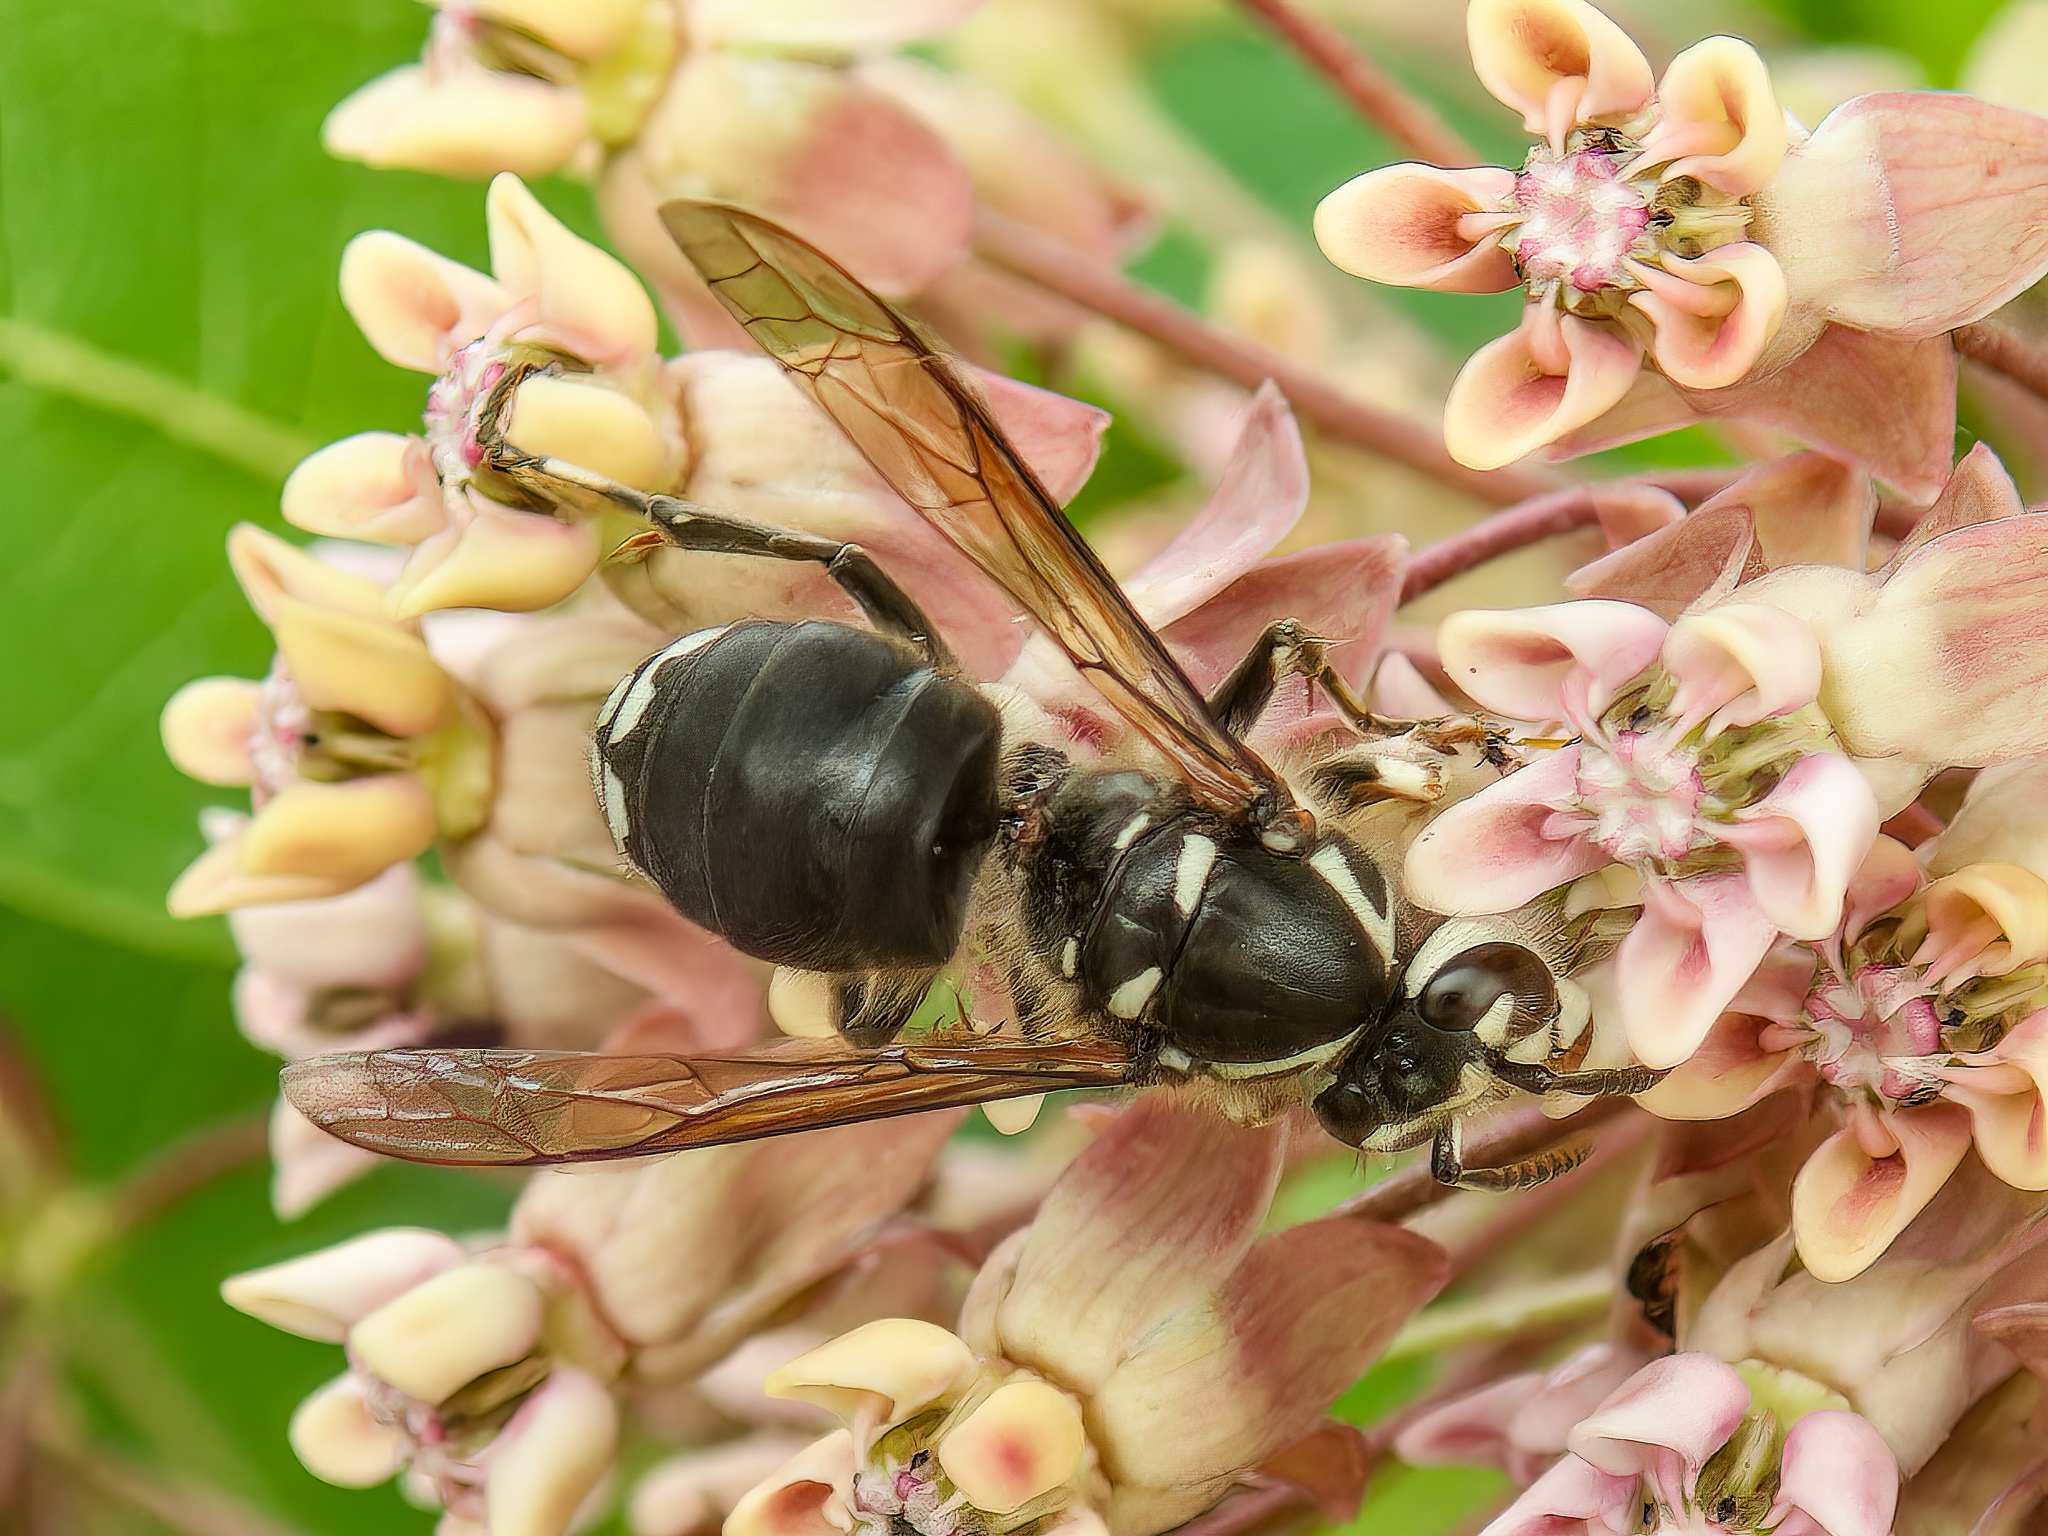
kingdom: Animalia
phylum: Arthropoda
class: Insecta
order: Hymenoptera
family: Vespidae
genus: Dolichovespula
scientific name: Dolichovespula maculata
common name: Bald-faced hornet
